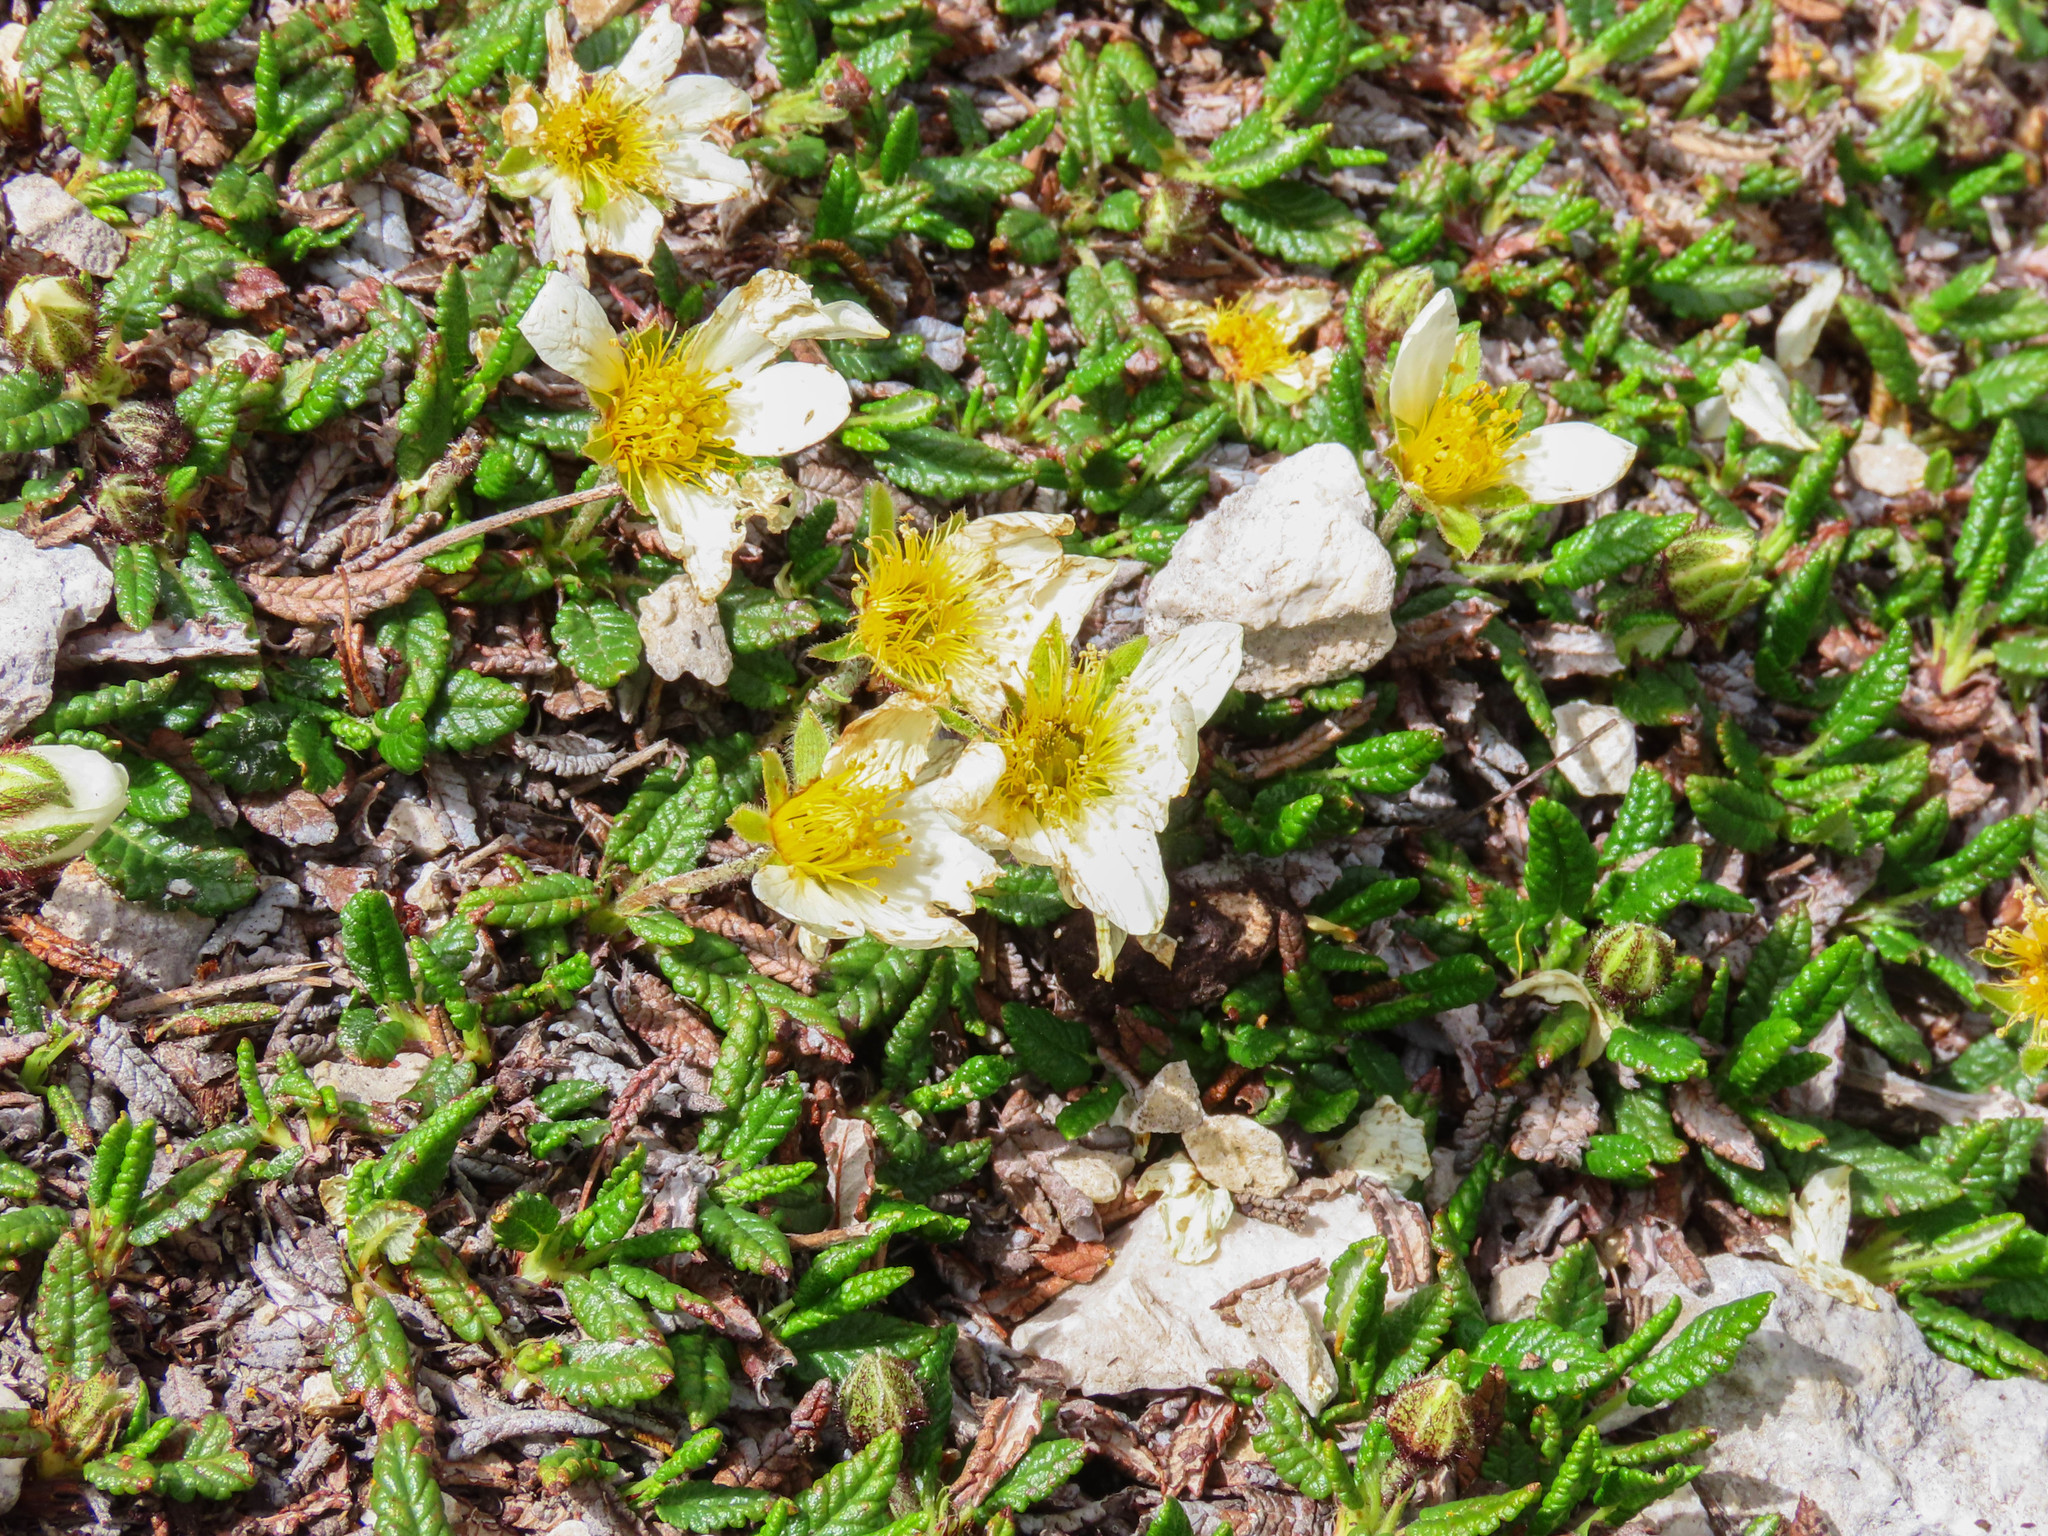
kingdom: Plantae
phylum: Tracheophyta
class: Magnoliopsida
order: Rosales
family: Rosaceae
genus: Dryas
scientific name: Dryas octopetala
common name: Eight-petal mountain-avens
